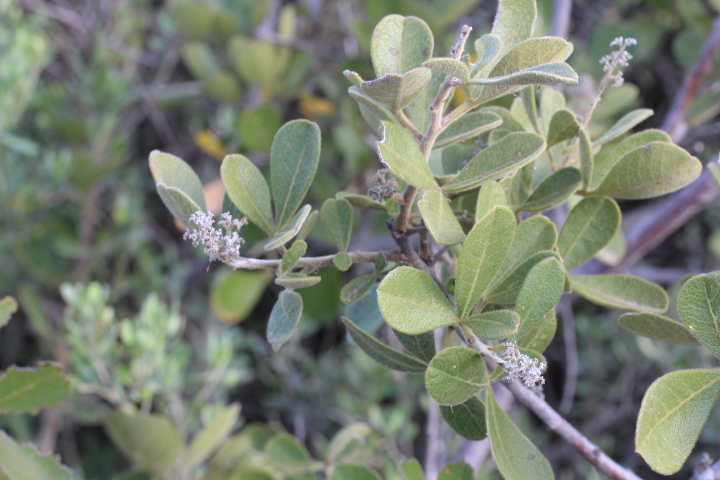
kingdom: Plantae
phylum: Tracheophyta
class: Magnoliopsida
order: Sapindales
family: Anacardiaceae
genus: Searsia
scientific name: Searsia laevigata
